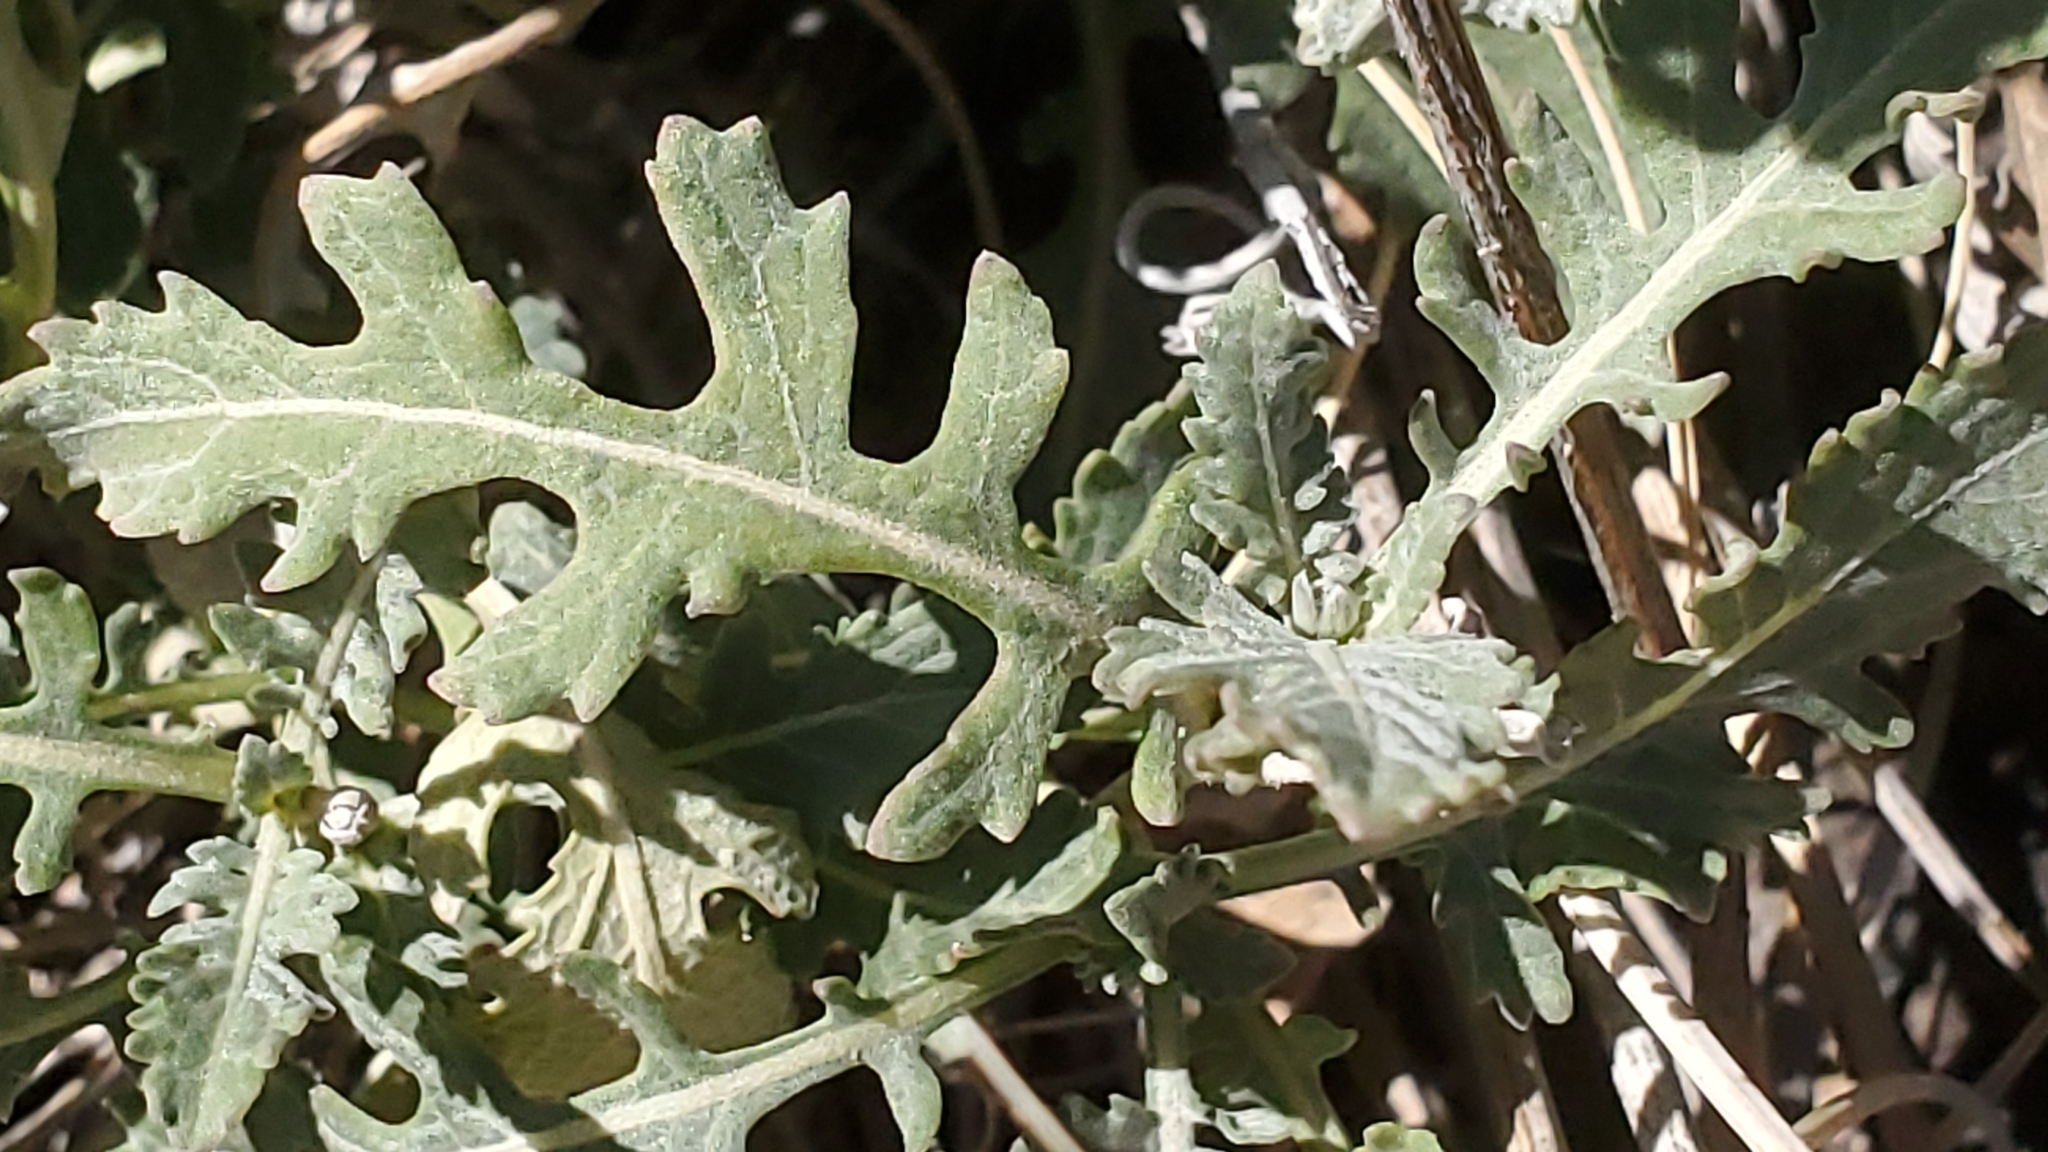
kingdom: Plantae
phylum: Tracheophyta
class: Magnoliopsida
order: Asterales
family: Asteraceae
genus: Berlandiera
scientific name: Berlandiera lyrata
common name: Chocolate-flower
